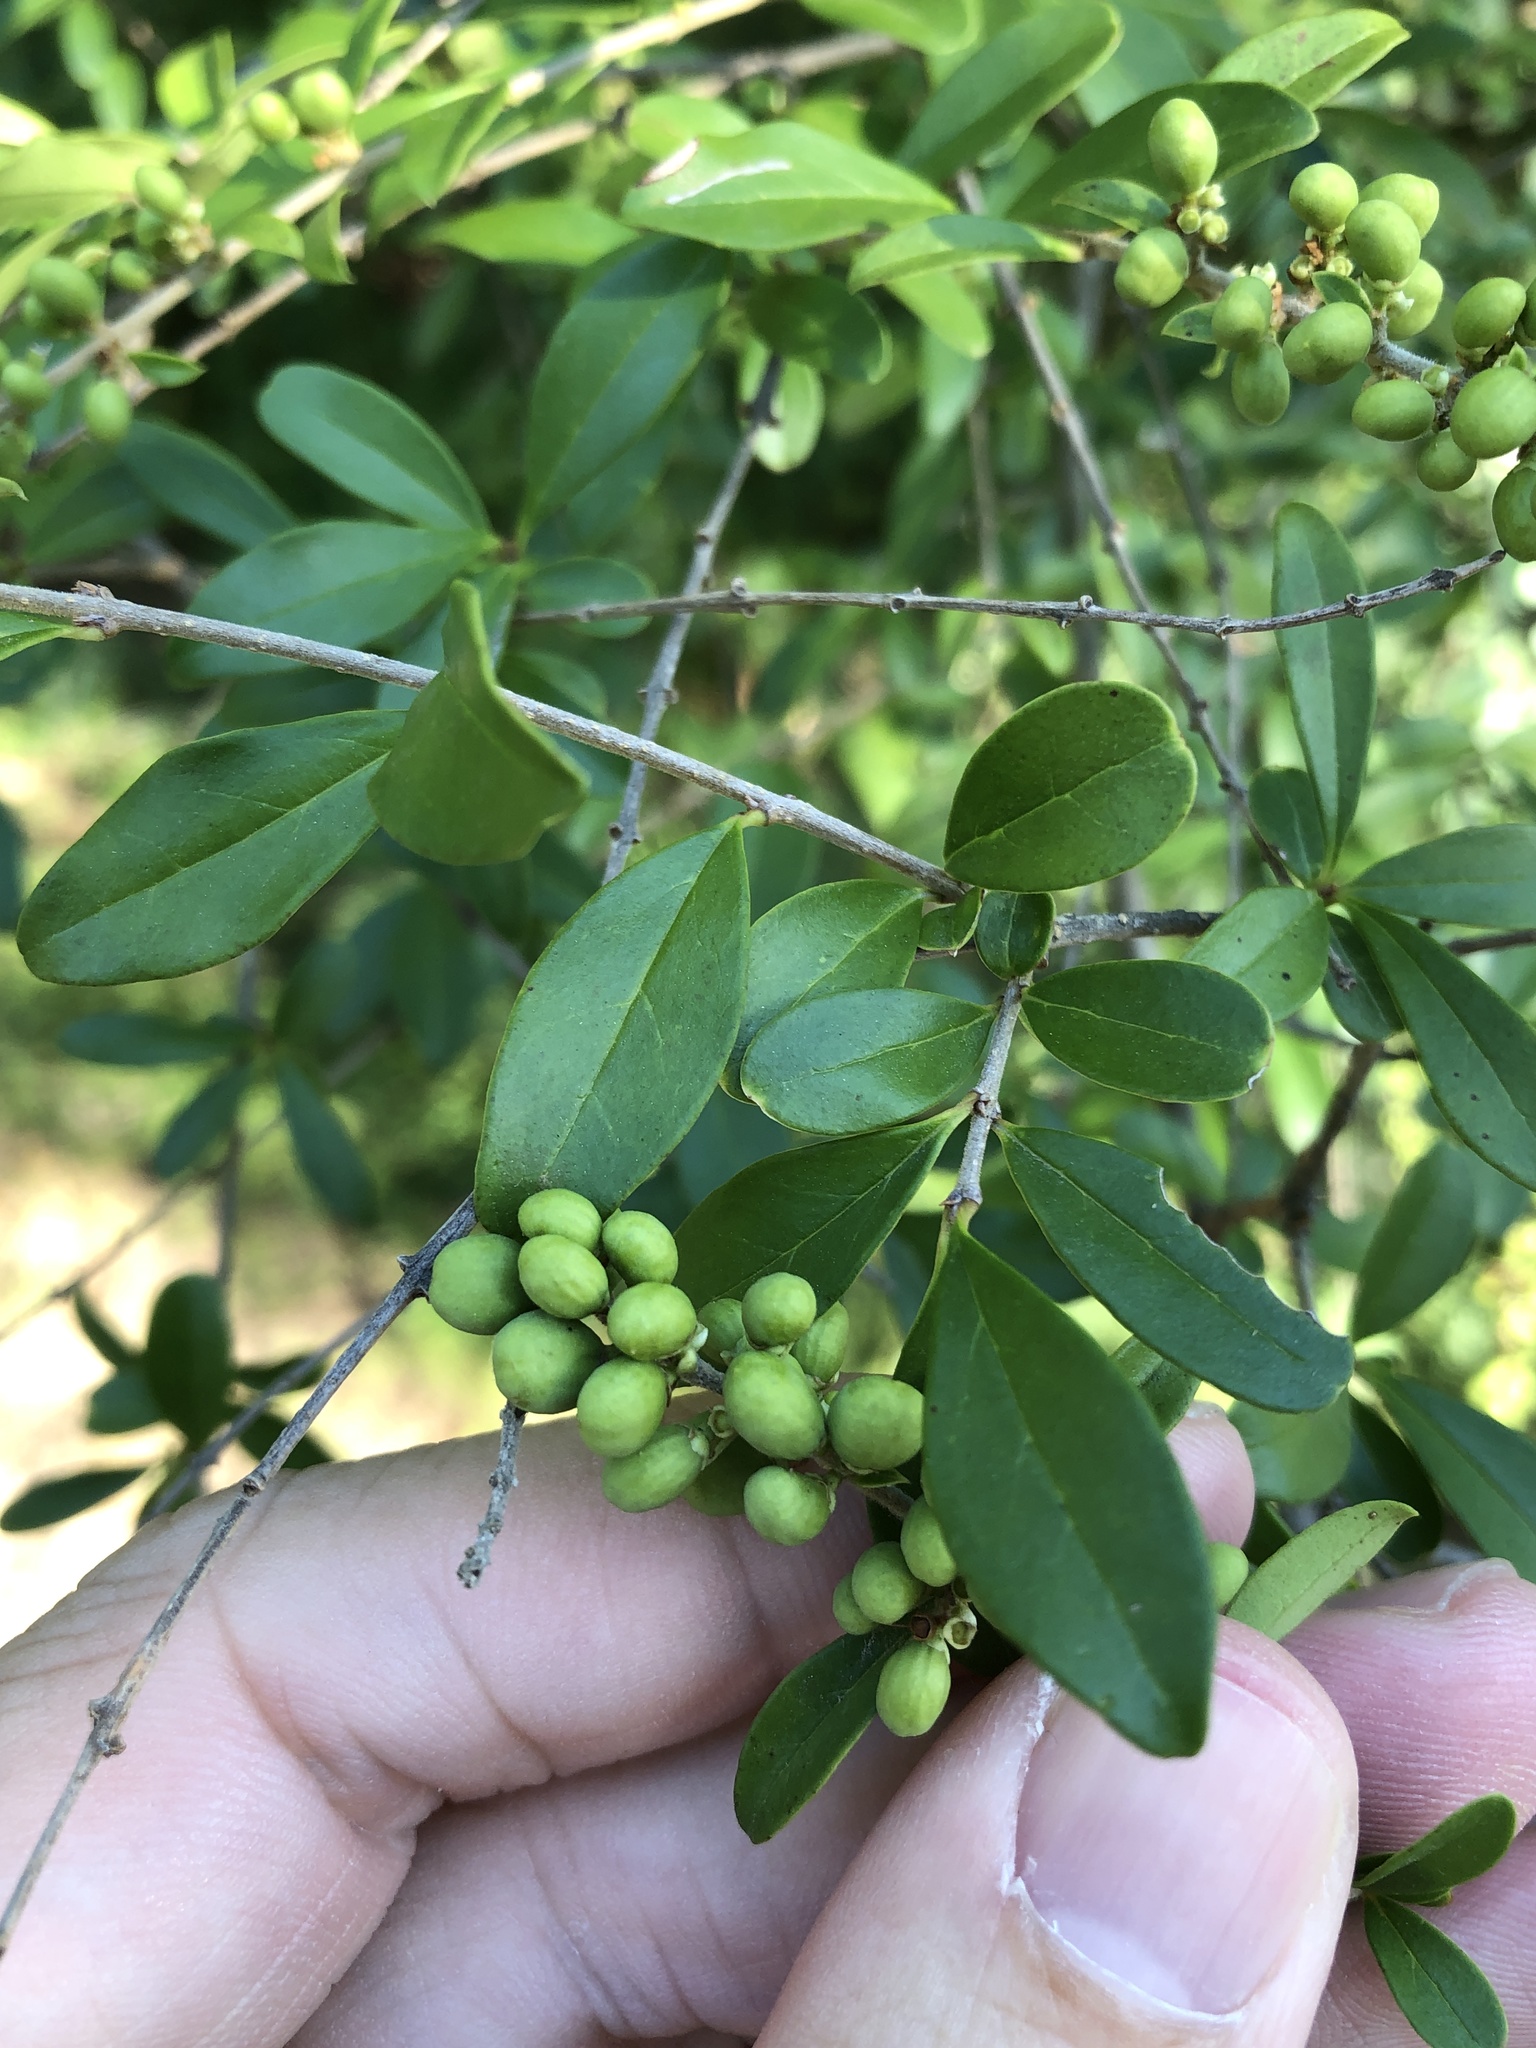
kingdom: Plantae
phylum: Tracheophyta
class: Magnoliopsida
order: Lamiales
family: Oleaceae
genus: Ligustrum
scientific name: Ligustrum quihoui
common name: Waxyleaf privet
